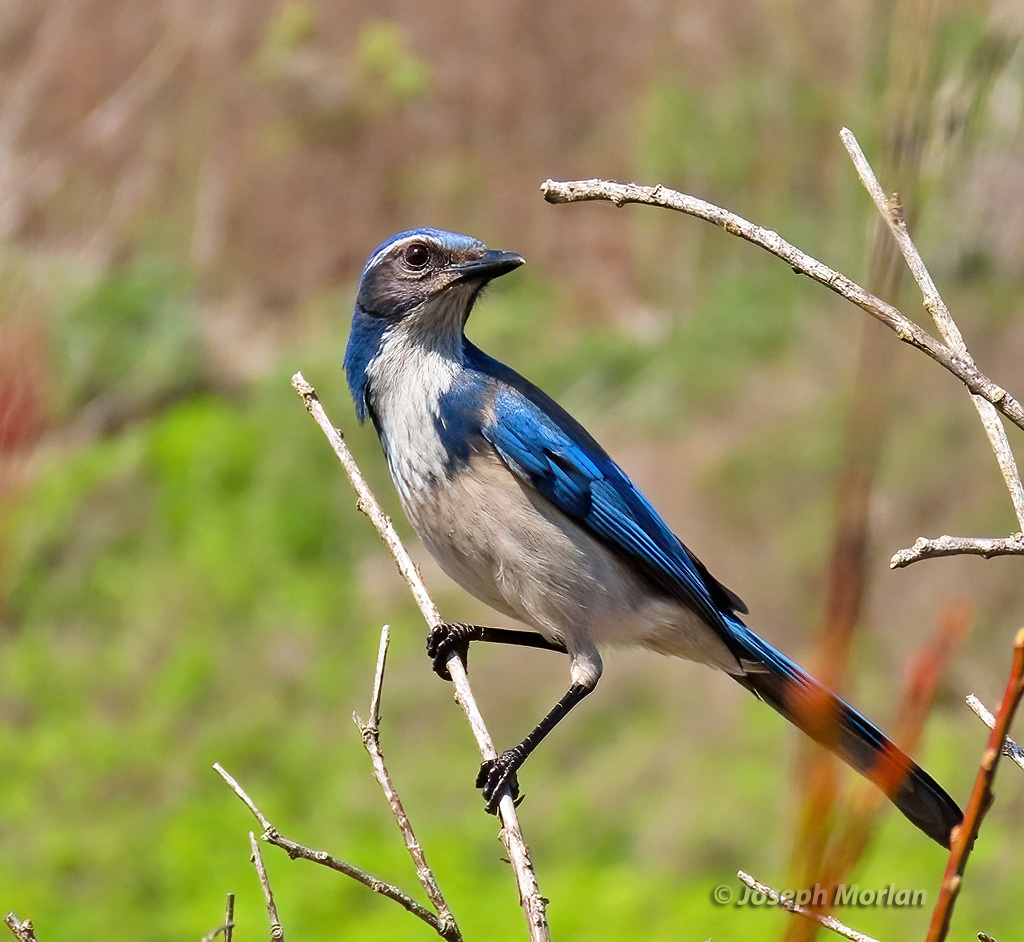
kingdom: Animalia
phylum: Chordata
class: Aves
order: Passeriformes
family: Corvidae
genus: Aphelocoma
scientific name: Aphelocoma californica
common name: California scrub-jay
